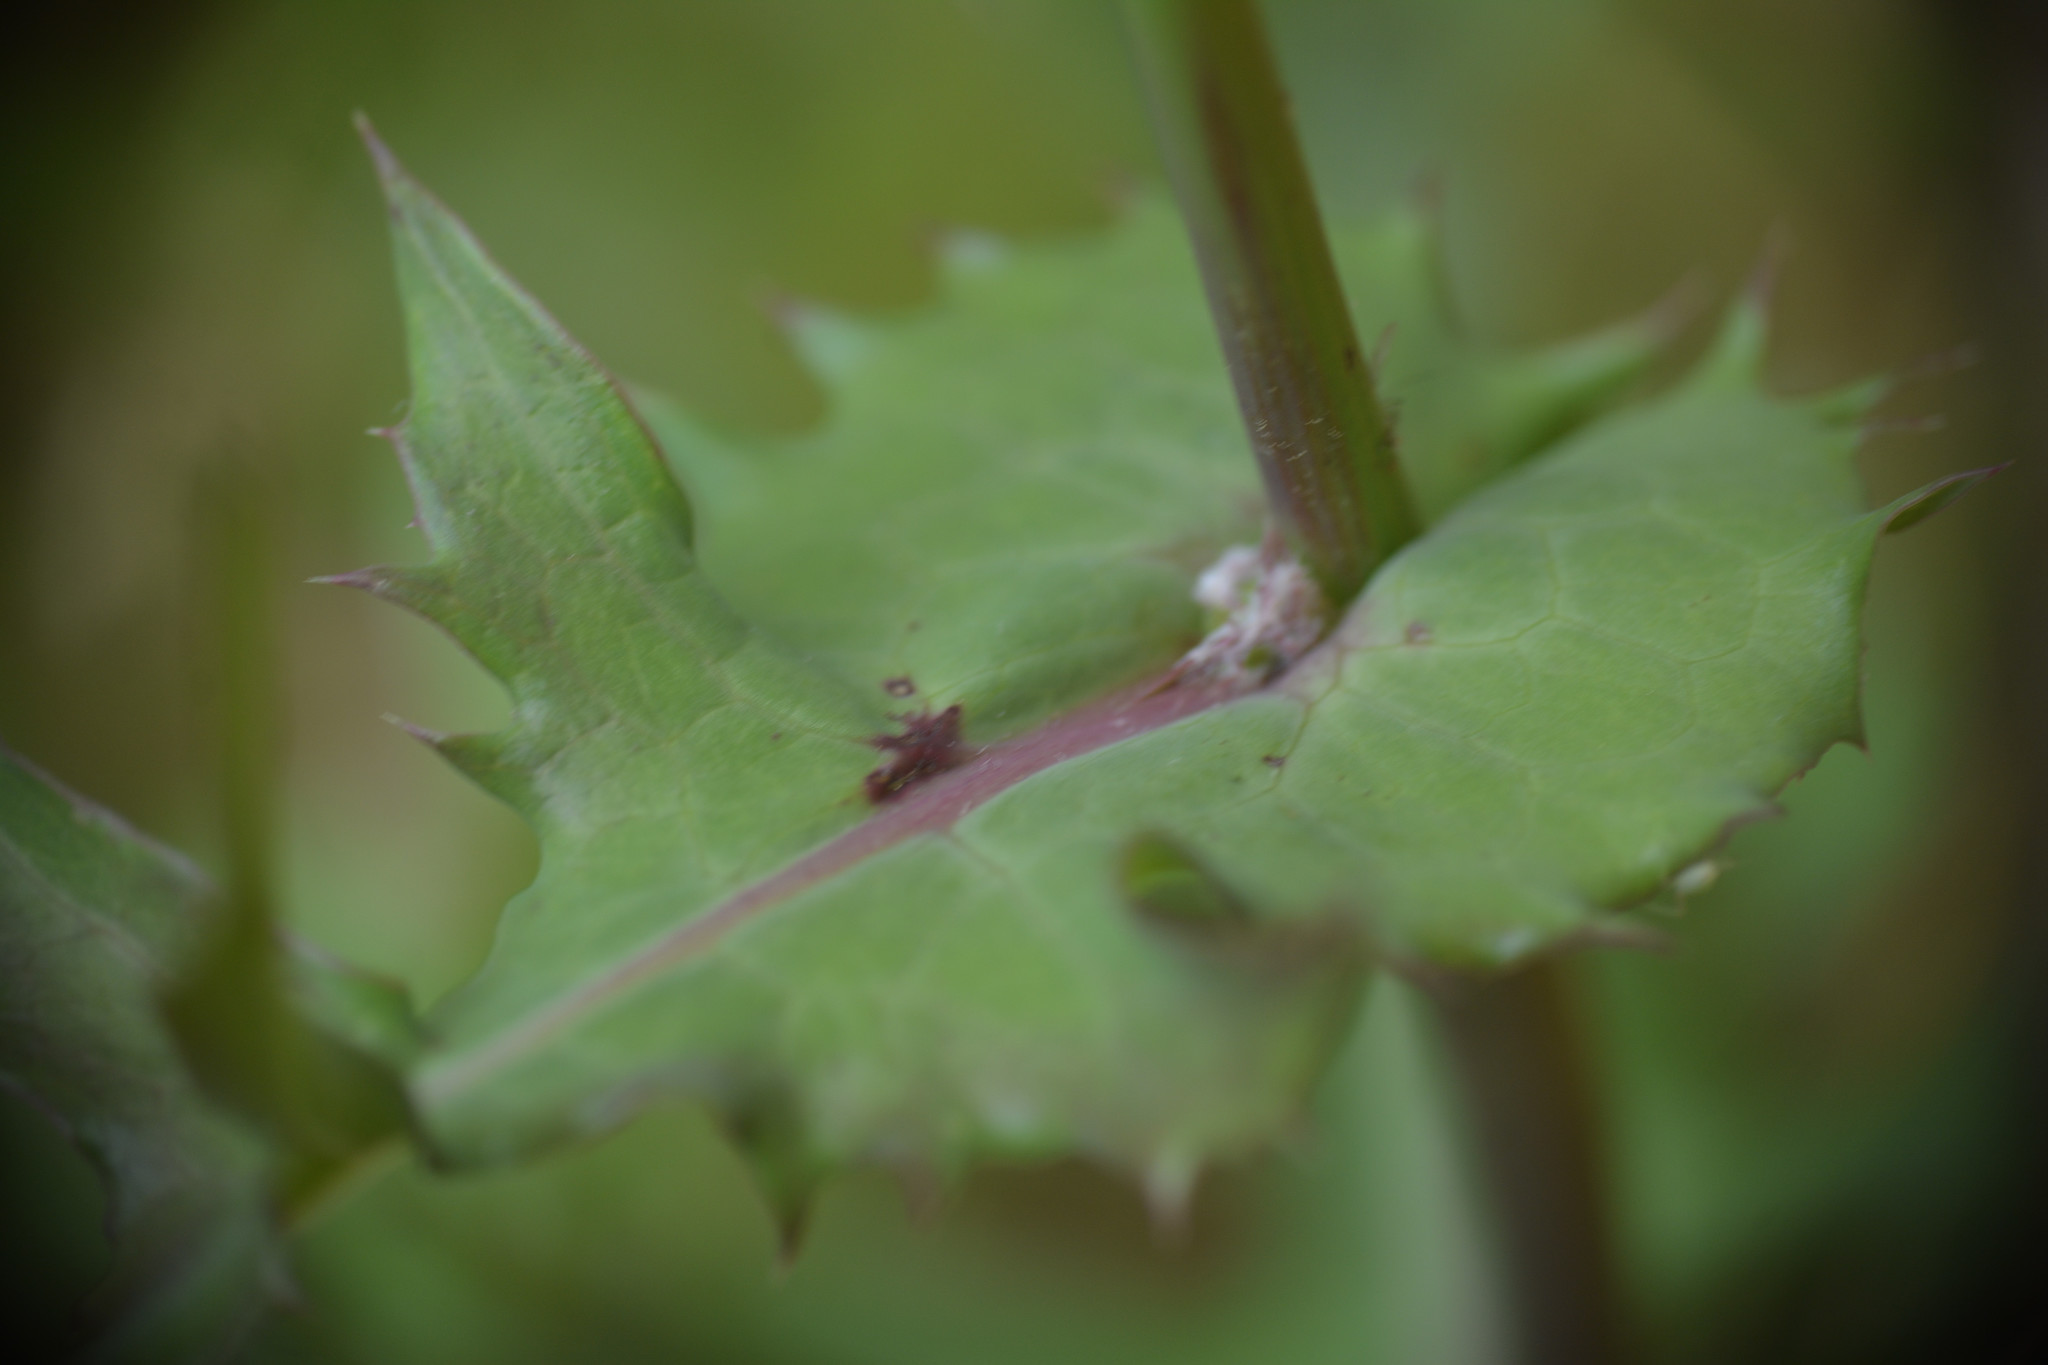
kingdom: Plantae
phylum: Tracheophyta
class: Magnoliopsida
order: Asterales
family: Asteraceae
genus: Sonchus
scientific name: Sonchus oleraceus
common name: Common sowthistle
